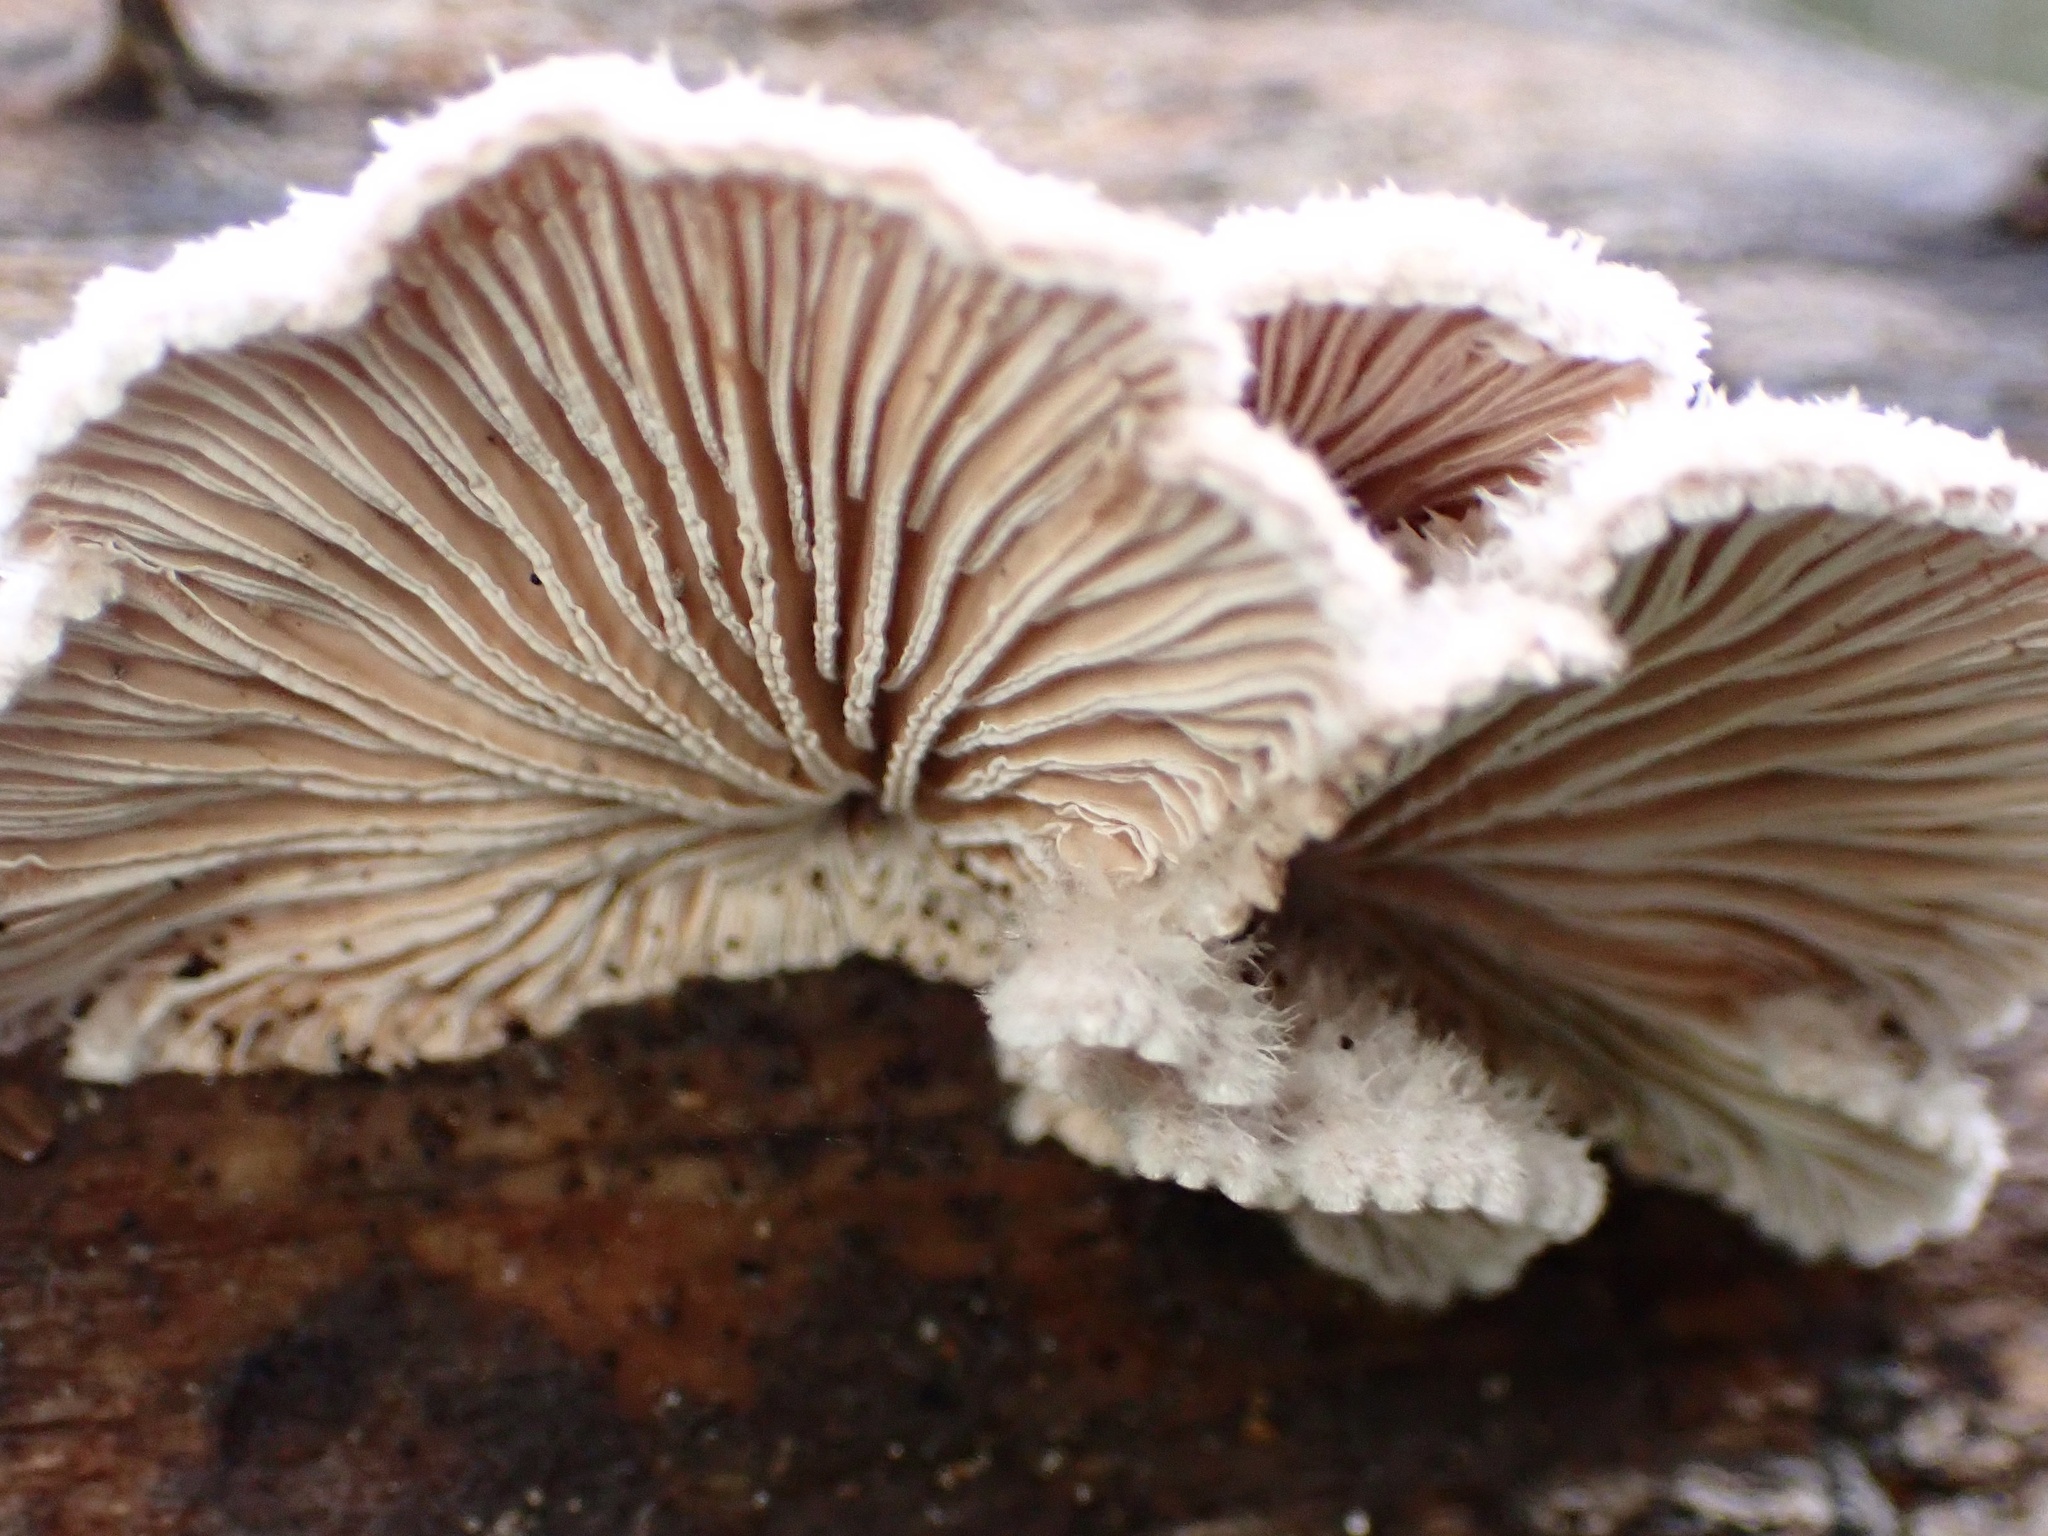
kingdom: Fungi
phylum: Basidiomycota
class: Agaricomycetes
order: Agaricales
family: Schizophyllaceae
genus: Schizophyllum
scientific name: Schizophyllum commune
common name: Common porecrust
